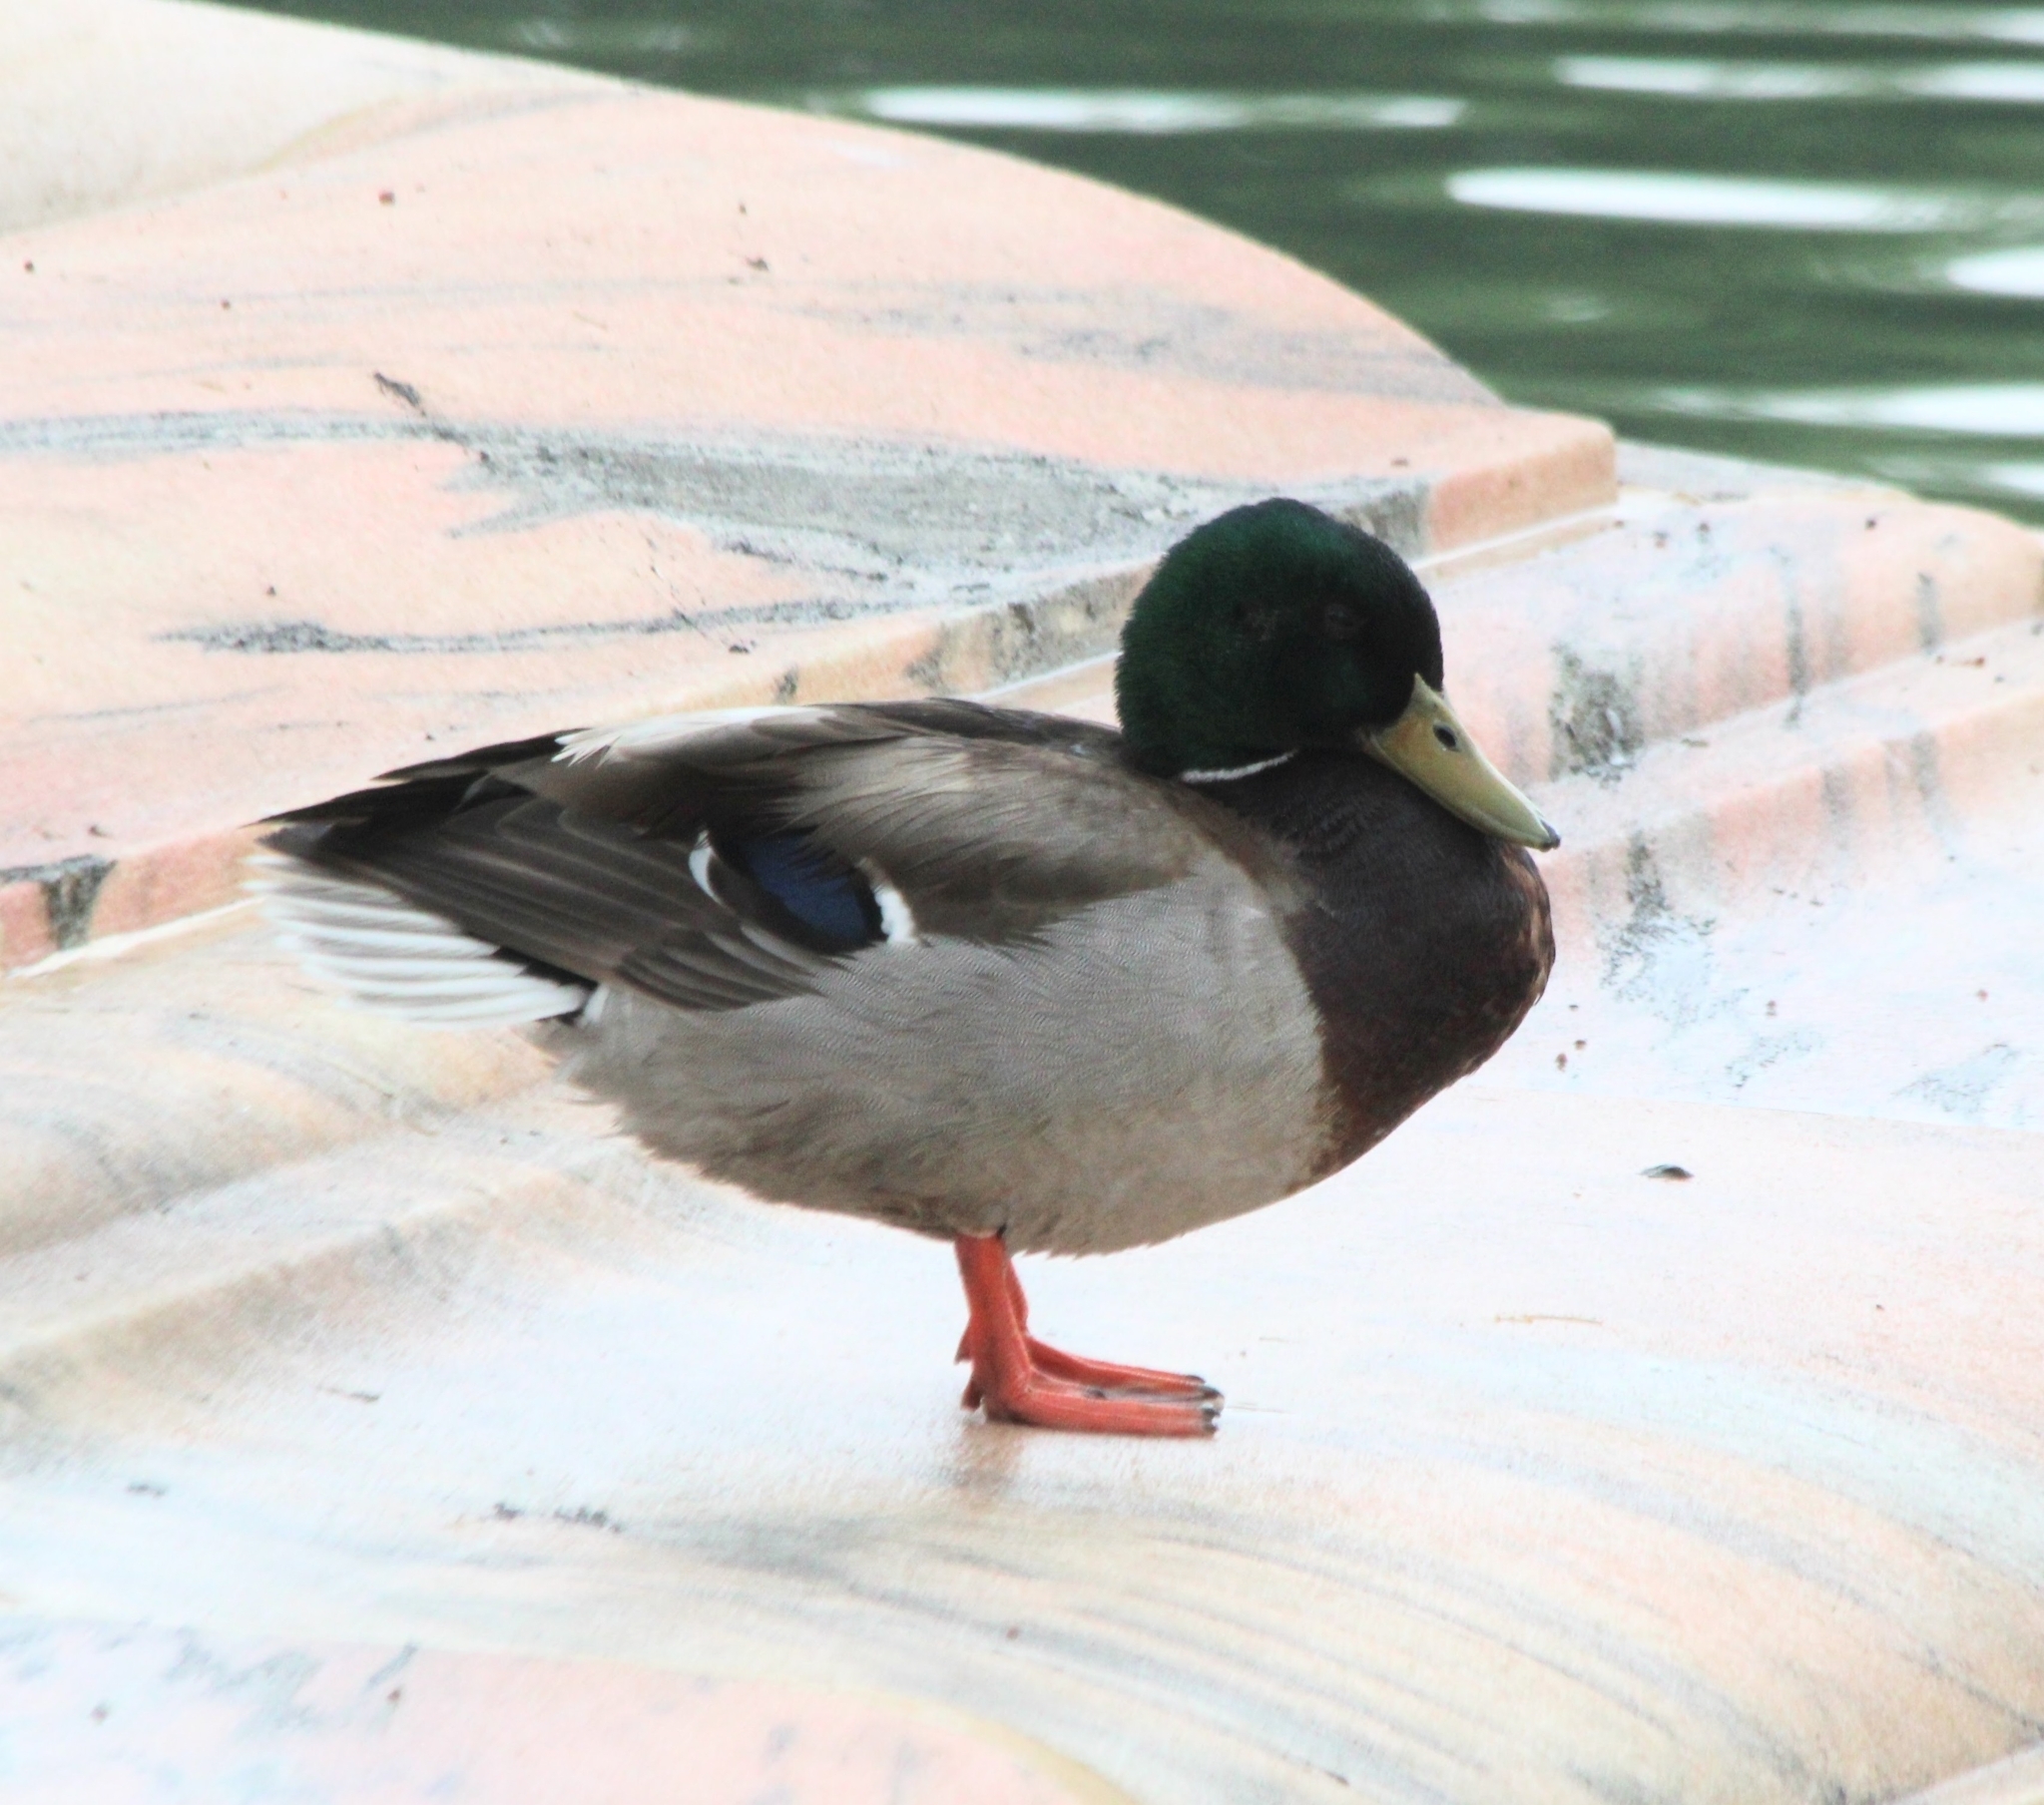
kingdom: Animalia
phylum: Chordata
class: Aves
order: Anseriformes
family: Anatidae
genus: Anas
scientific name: Anas platyrhynchos
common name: Mallard
